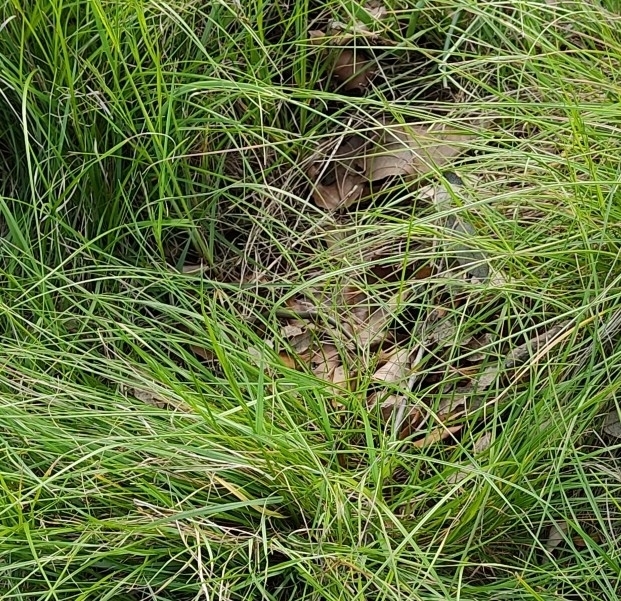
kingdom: Animalia
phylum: Chordata
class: Squamata
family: Scincidae
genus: Chalcides
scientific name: Chalcides striatus
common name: Western (or iberian) three-toed skink
